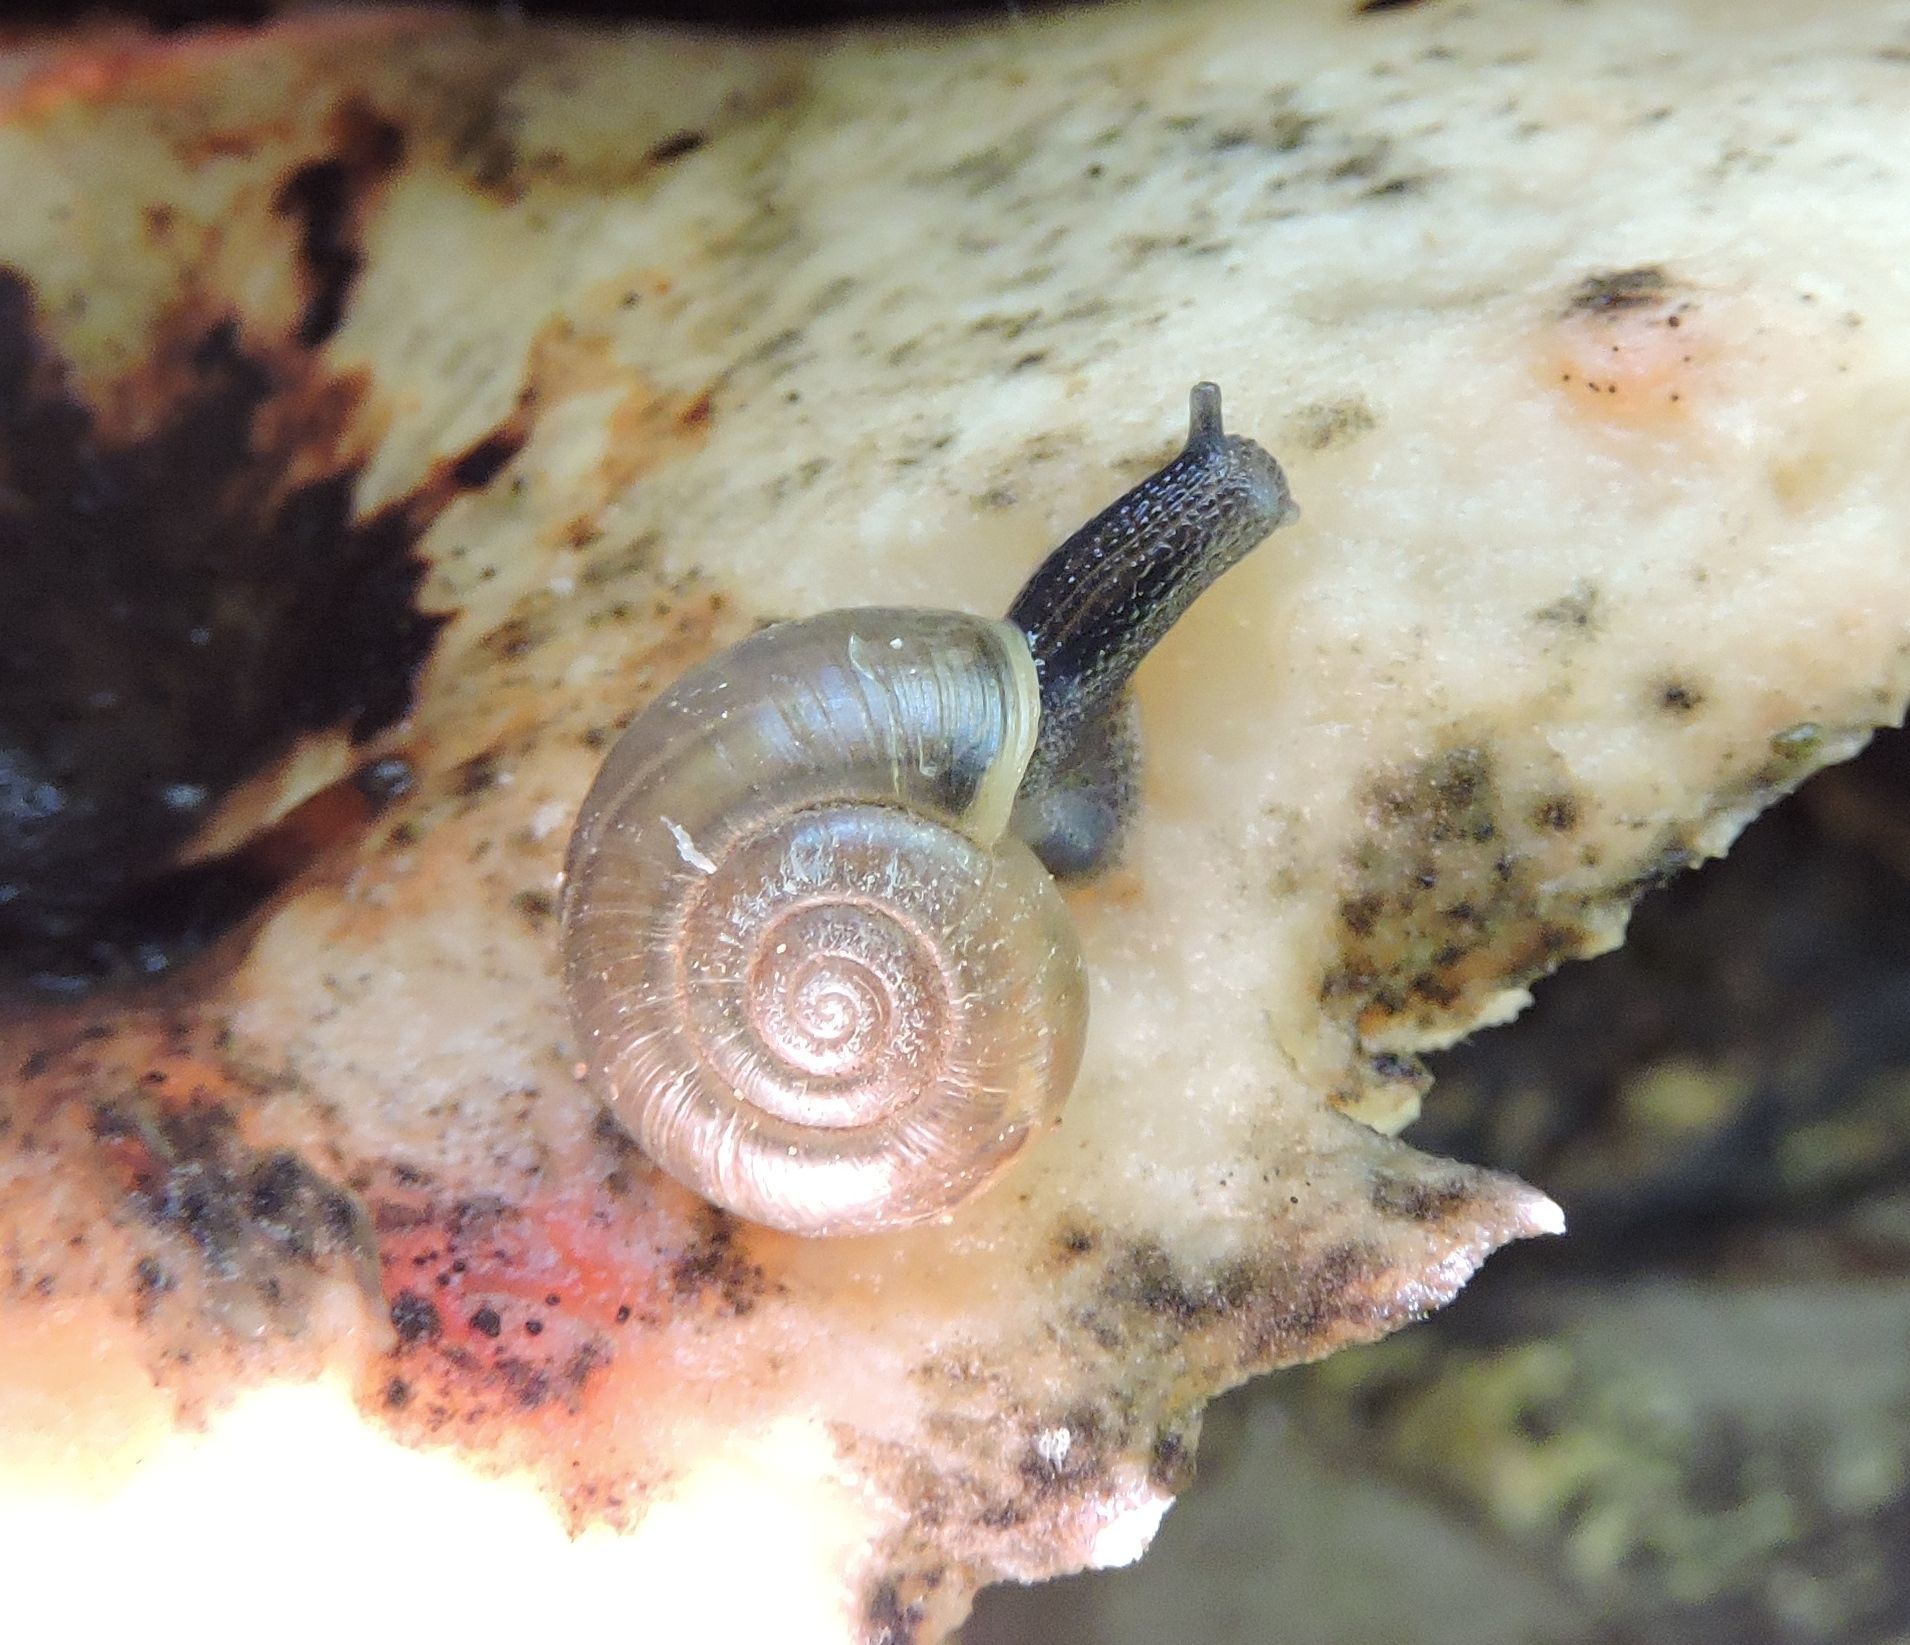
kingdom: Animalia
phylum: Mollusca
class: Gastropoda
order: Stylommatophora
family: Haplotrematidae
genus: Haplotrema
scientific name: Haplotrema concavum
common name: Gray-foot lancetooth
